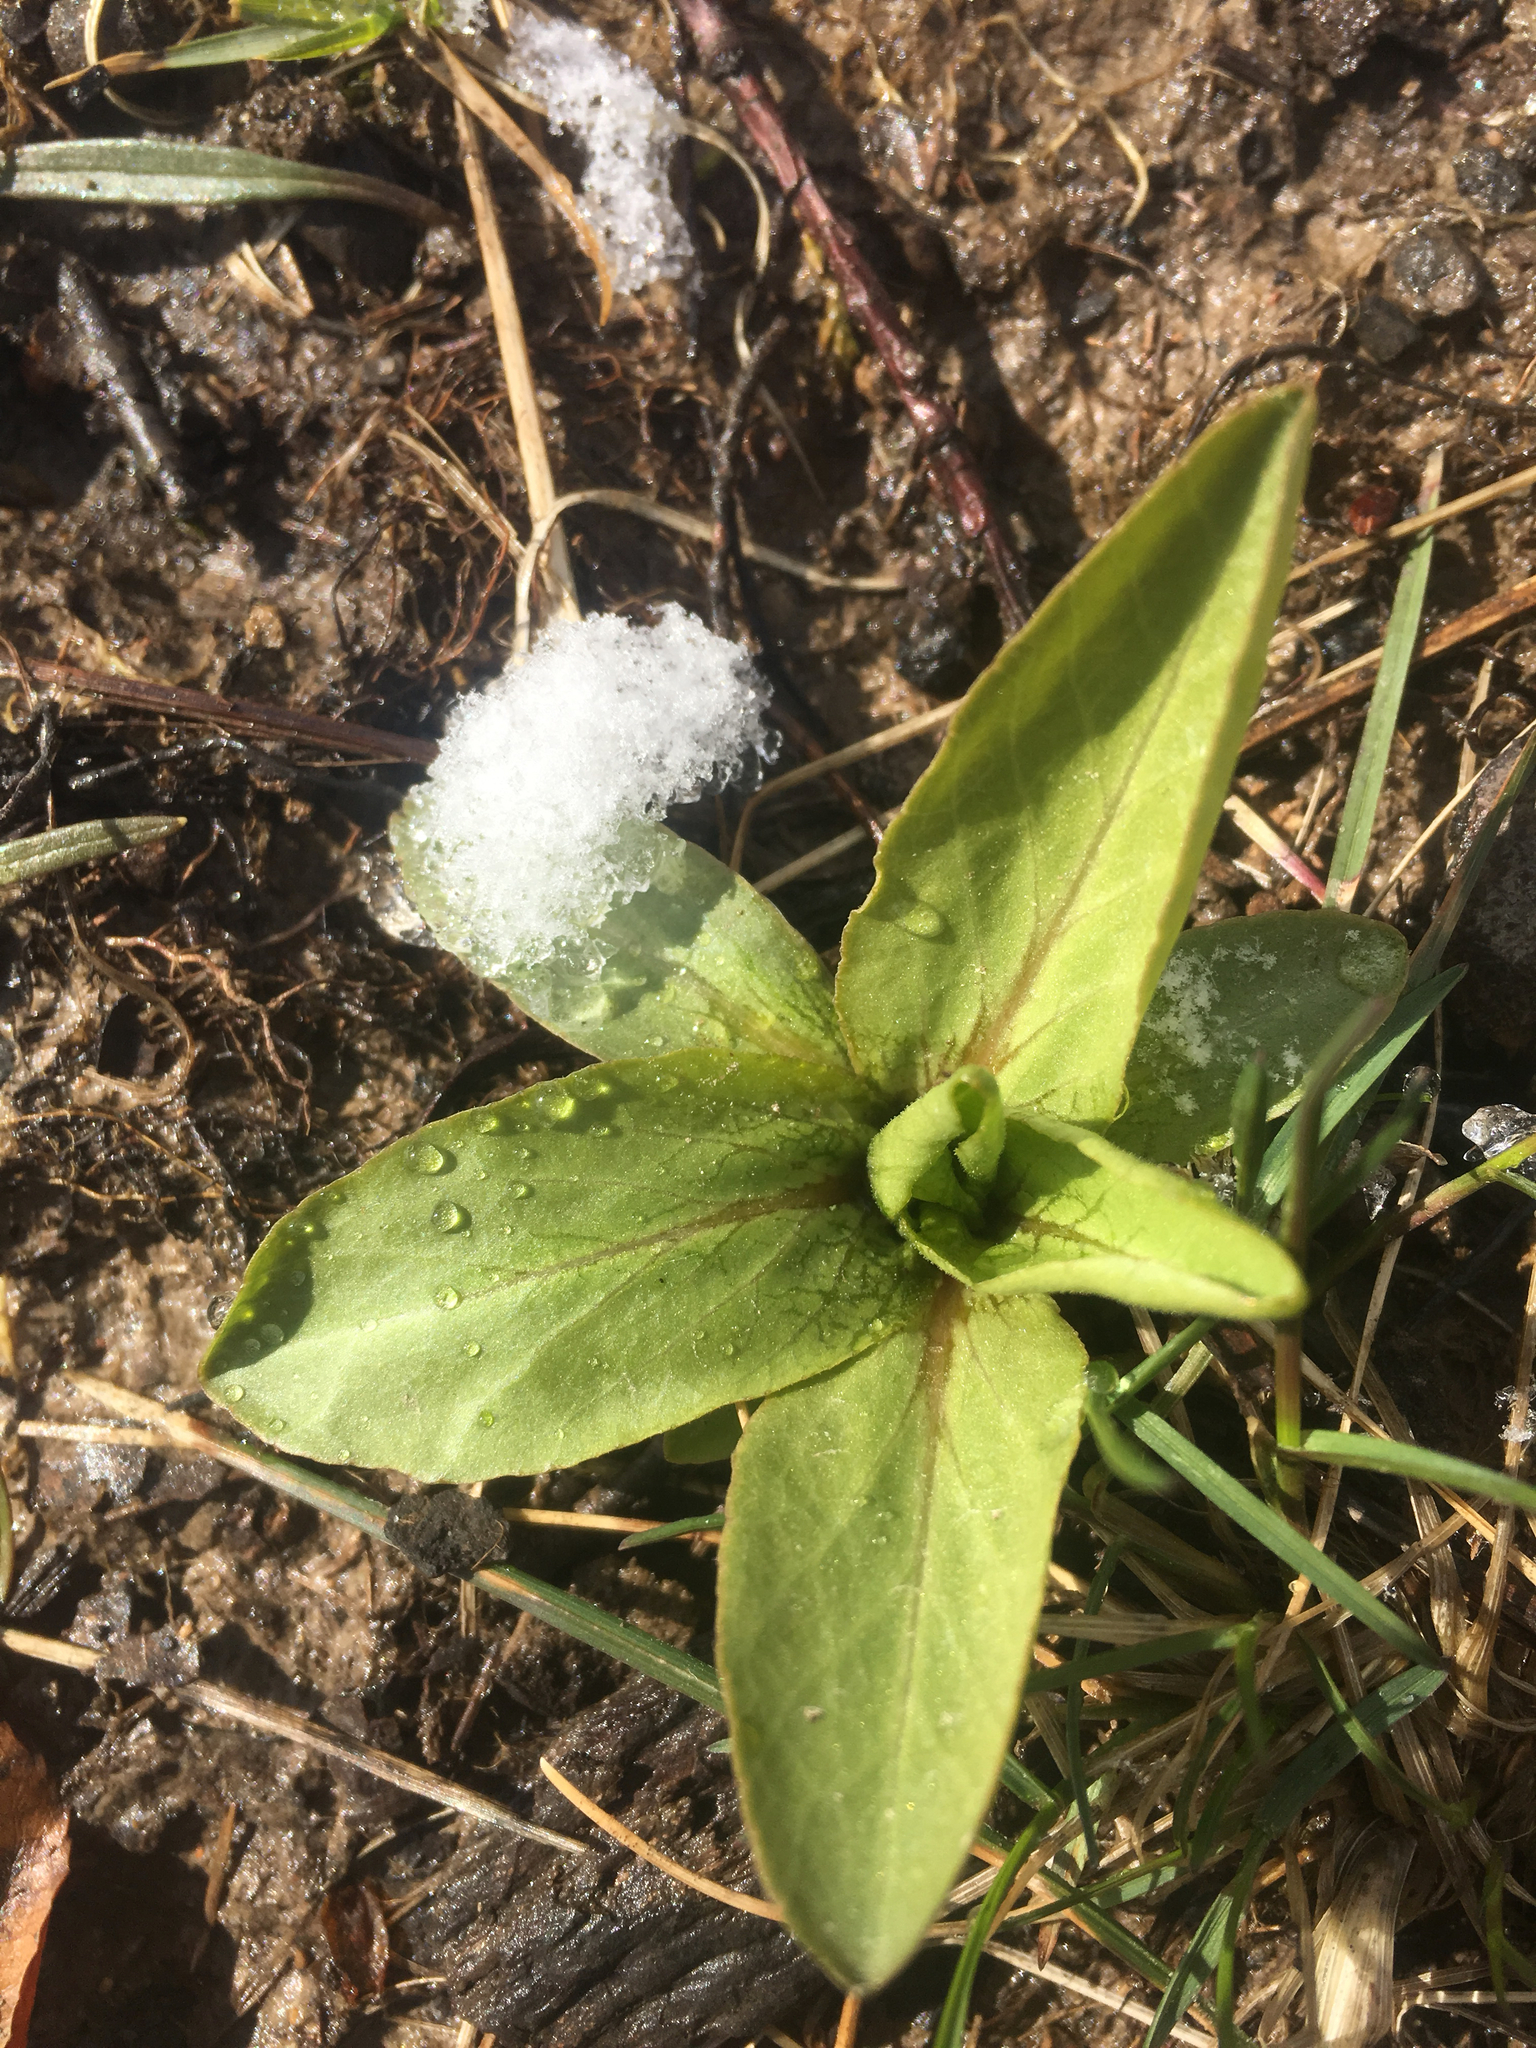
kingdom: Plantae
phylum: Tracheophyta
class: Magnoliopsida
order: Ericales
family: Primulaceae
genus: Dodecatheon
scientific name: Dodecatheon meadia
